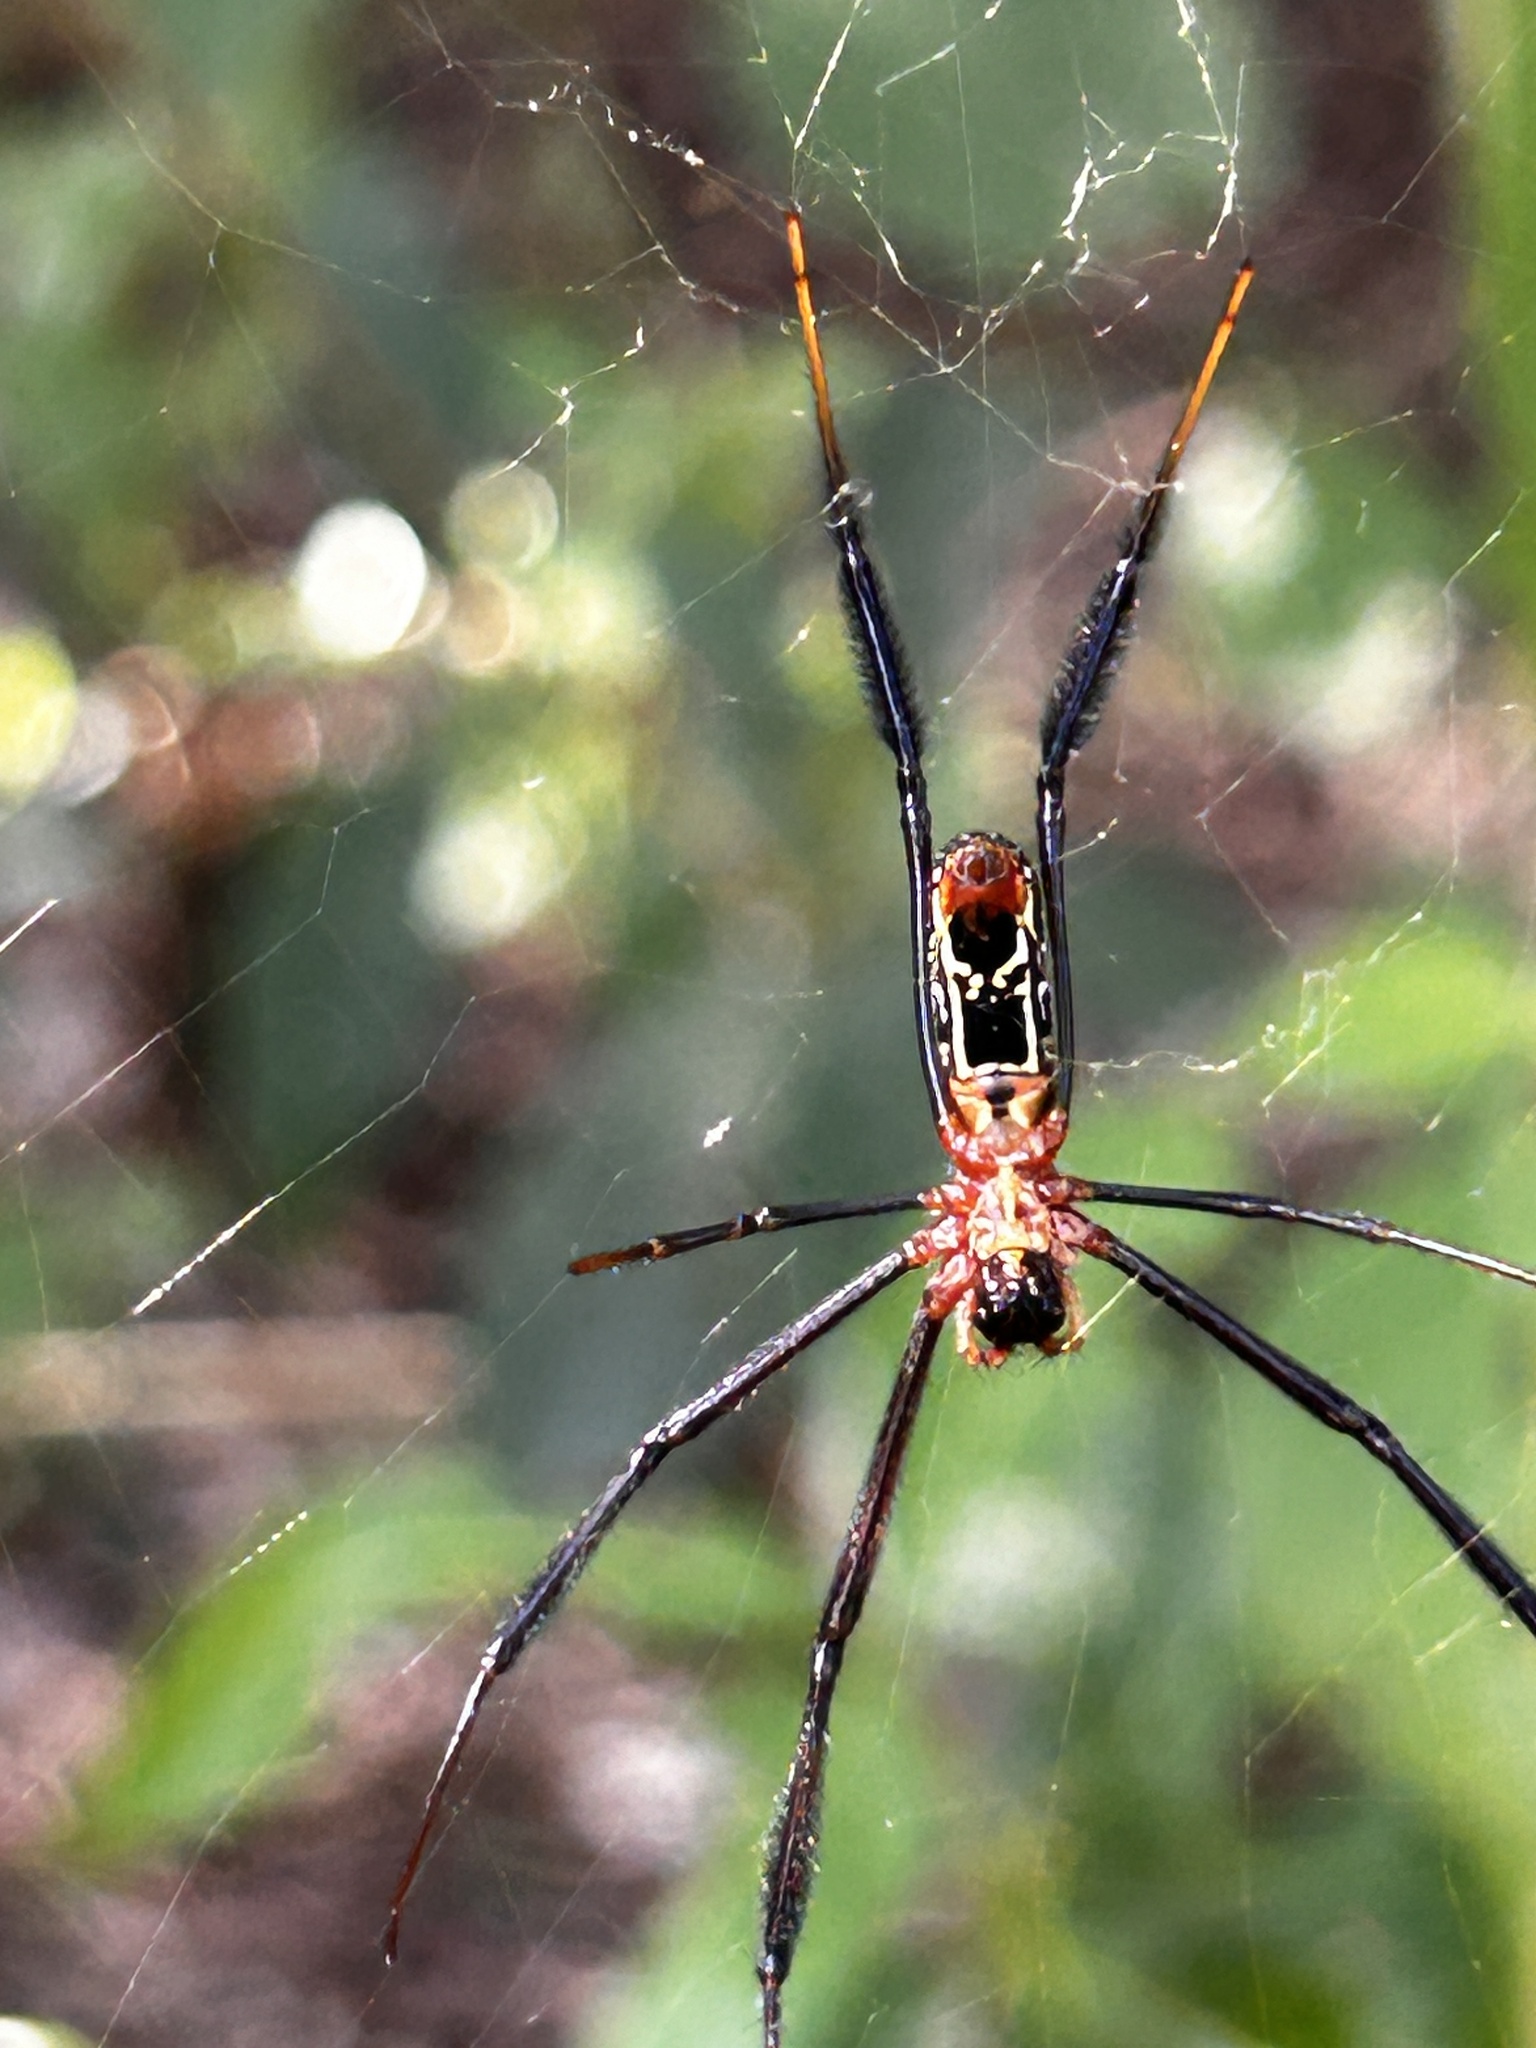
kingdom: Animalia
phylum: Arthropoda
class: Arachnida
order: Araneae
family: Araneidae
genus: Trichonephila
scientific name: Trichonephila fenestrata
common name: Hairy golden orb weaver
